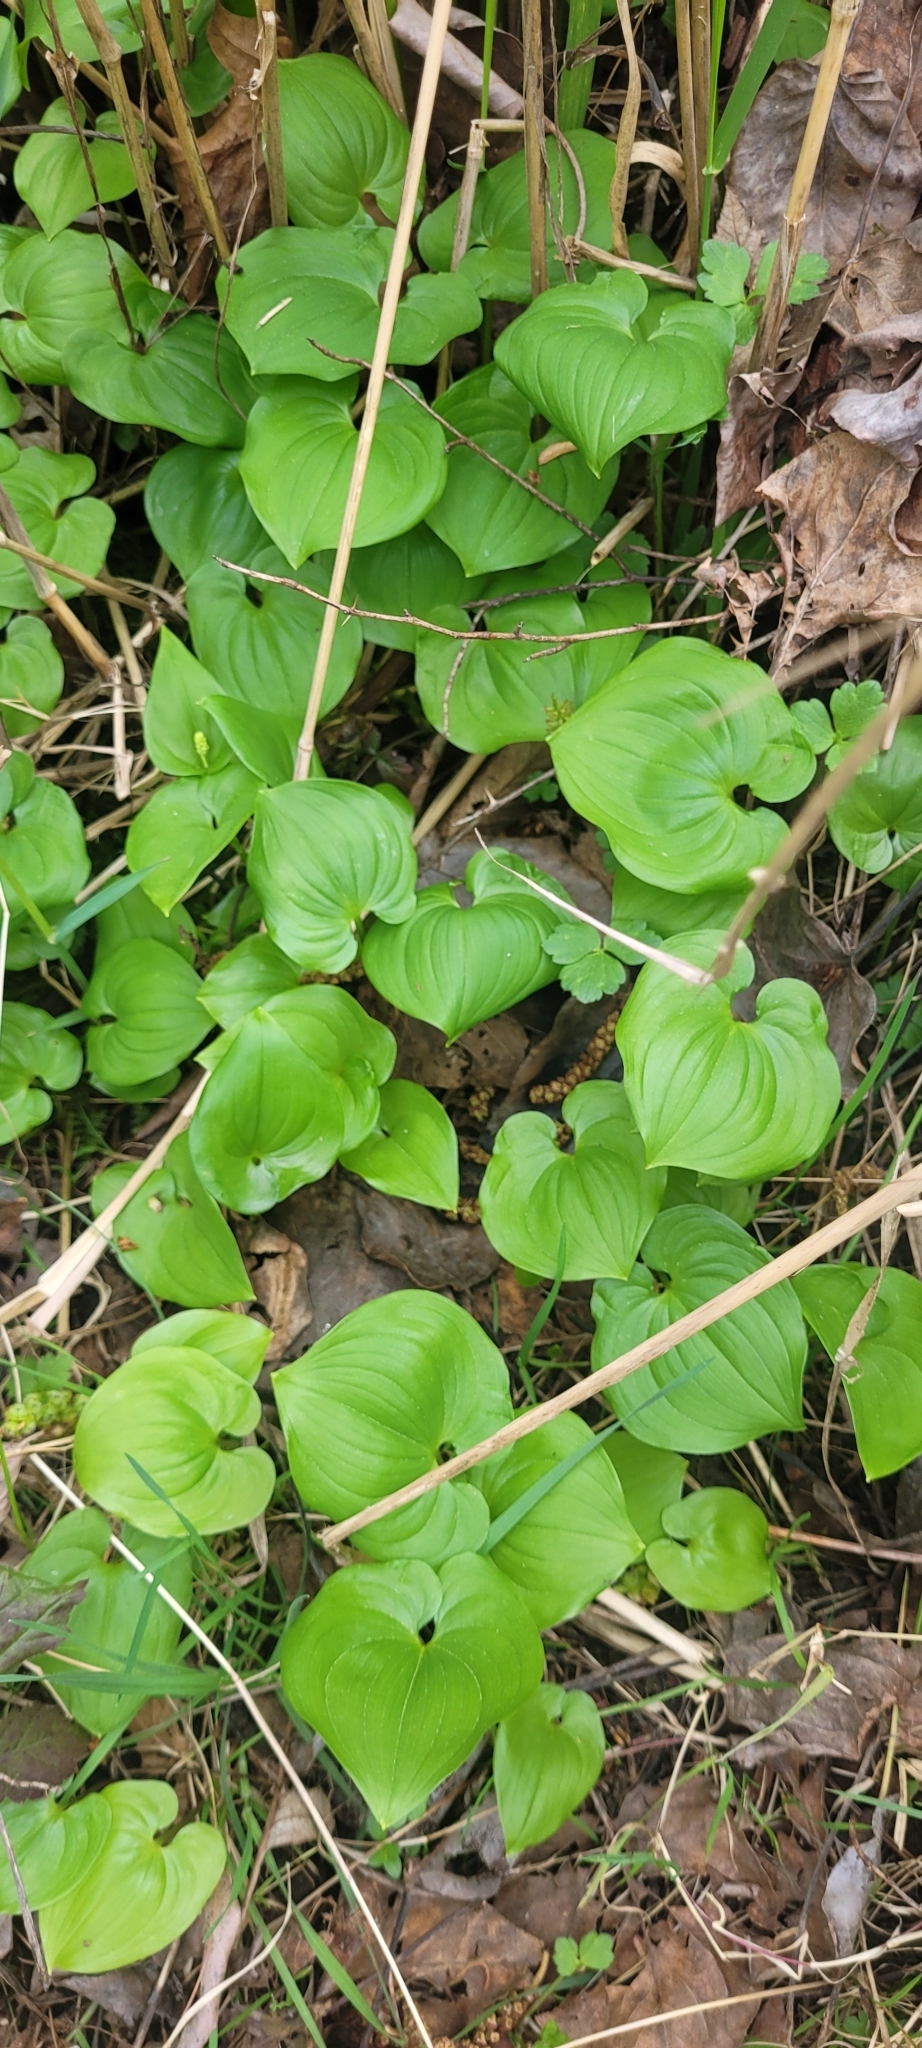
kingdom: Plantae
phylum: Tracheophyta
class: Liliopsida
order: Asparagales
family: Asparagaceae
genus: Maianthemum
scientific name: Maianthemum dilatatum
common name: False lily-of-the-valley
